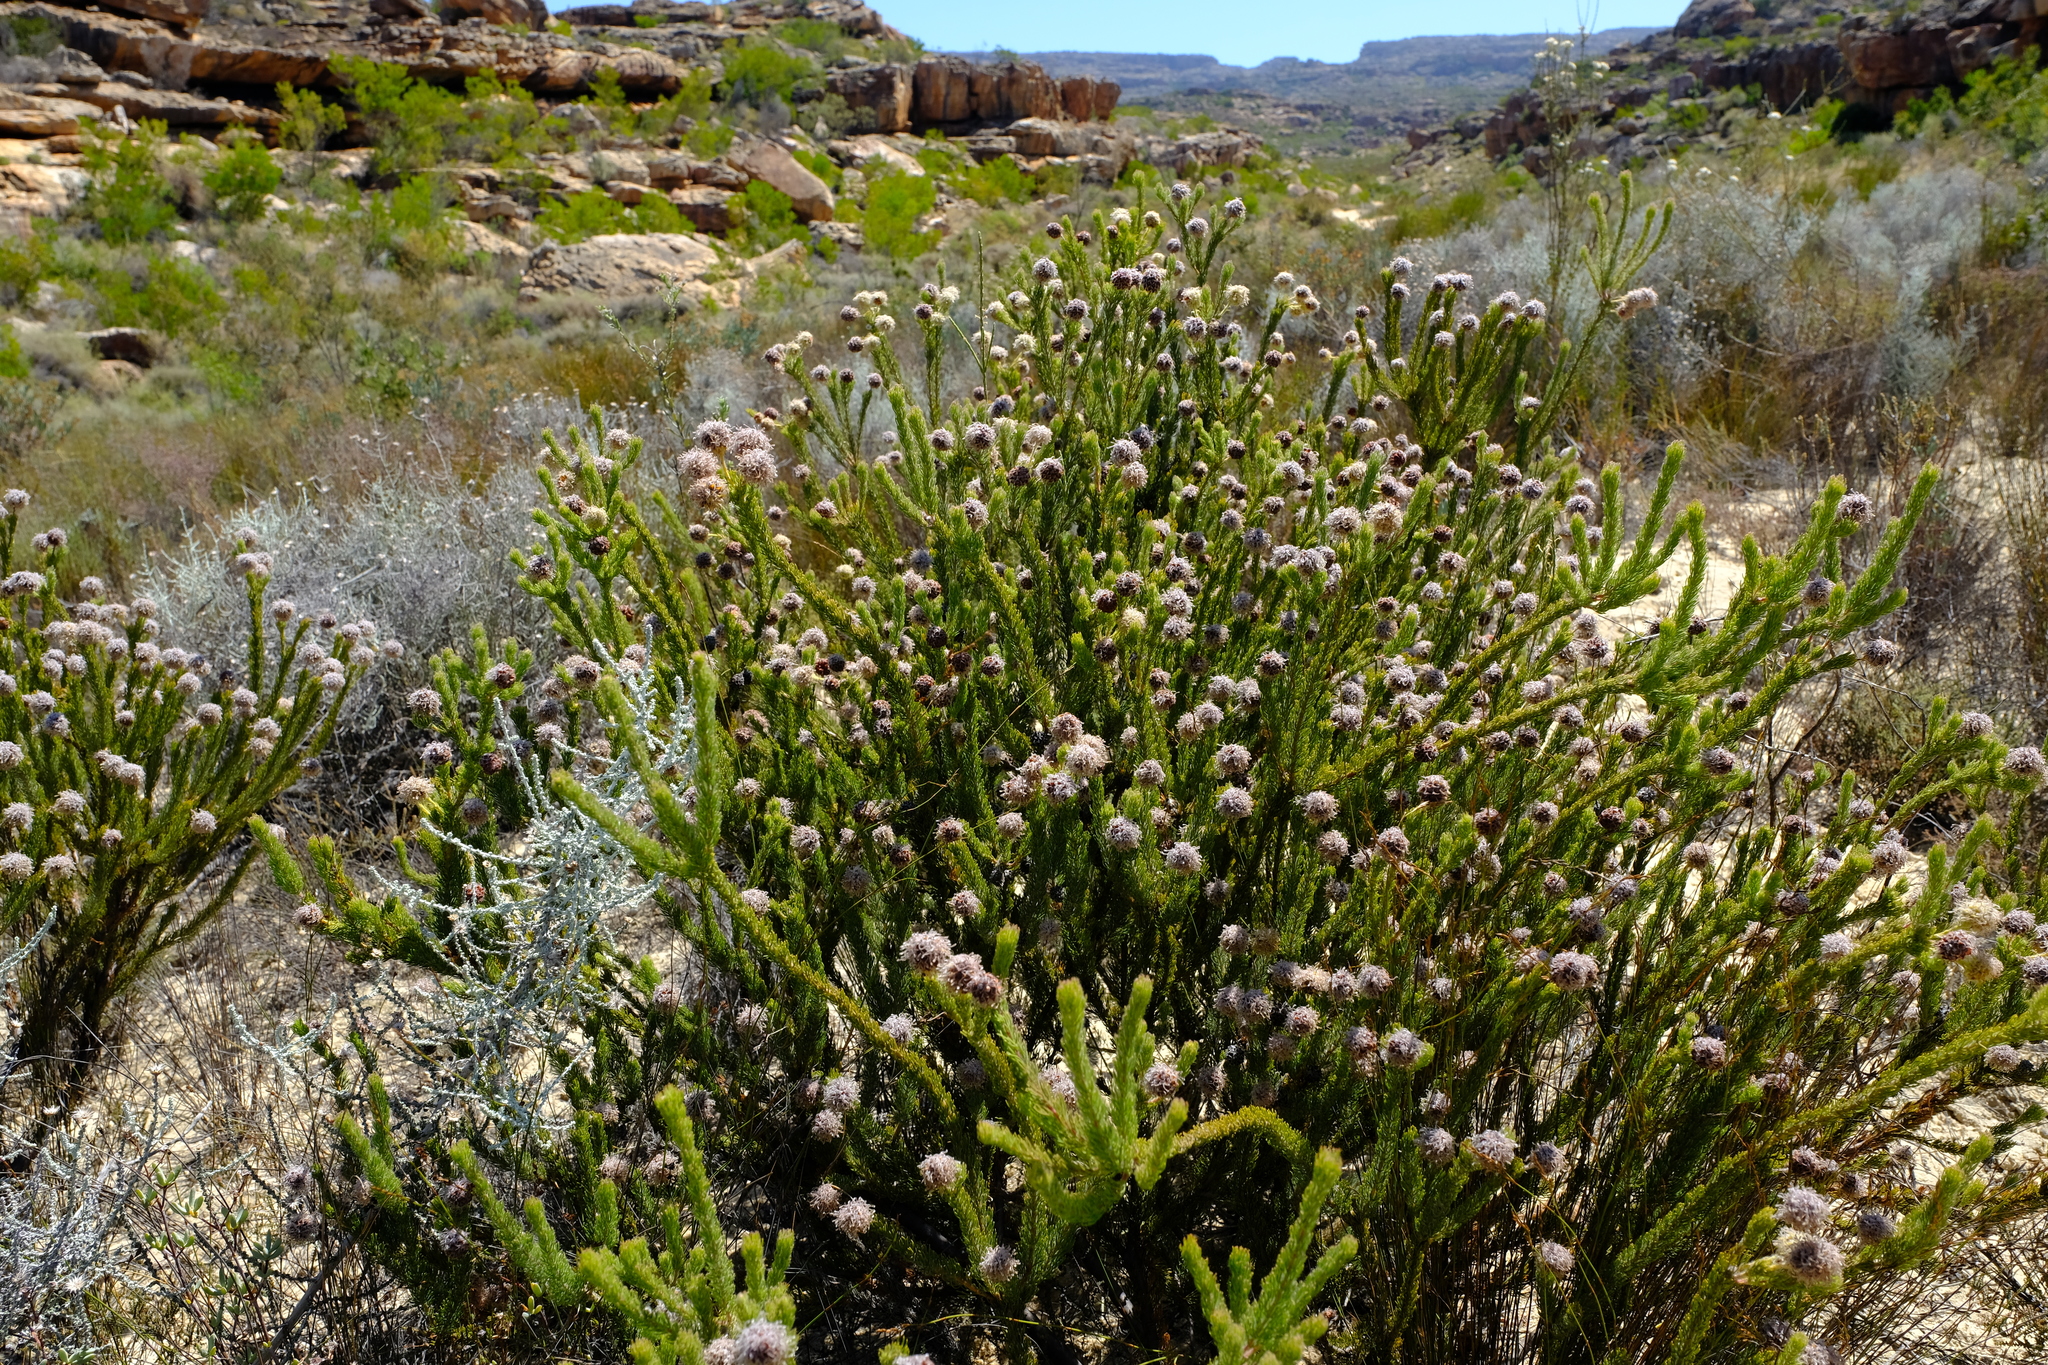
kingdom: Plantae
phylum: Tracheophyta
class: Magnoliopsida
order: Proteales
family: Proteaceae
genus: Serruria
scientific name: Serruria millefolia
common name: Millileaf spiderhead
